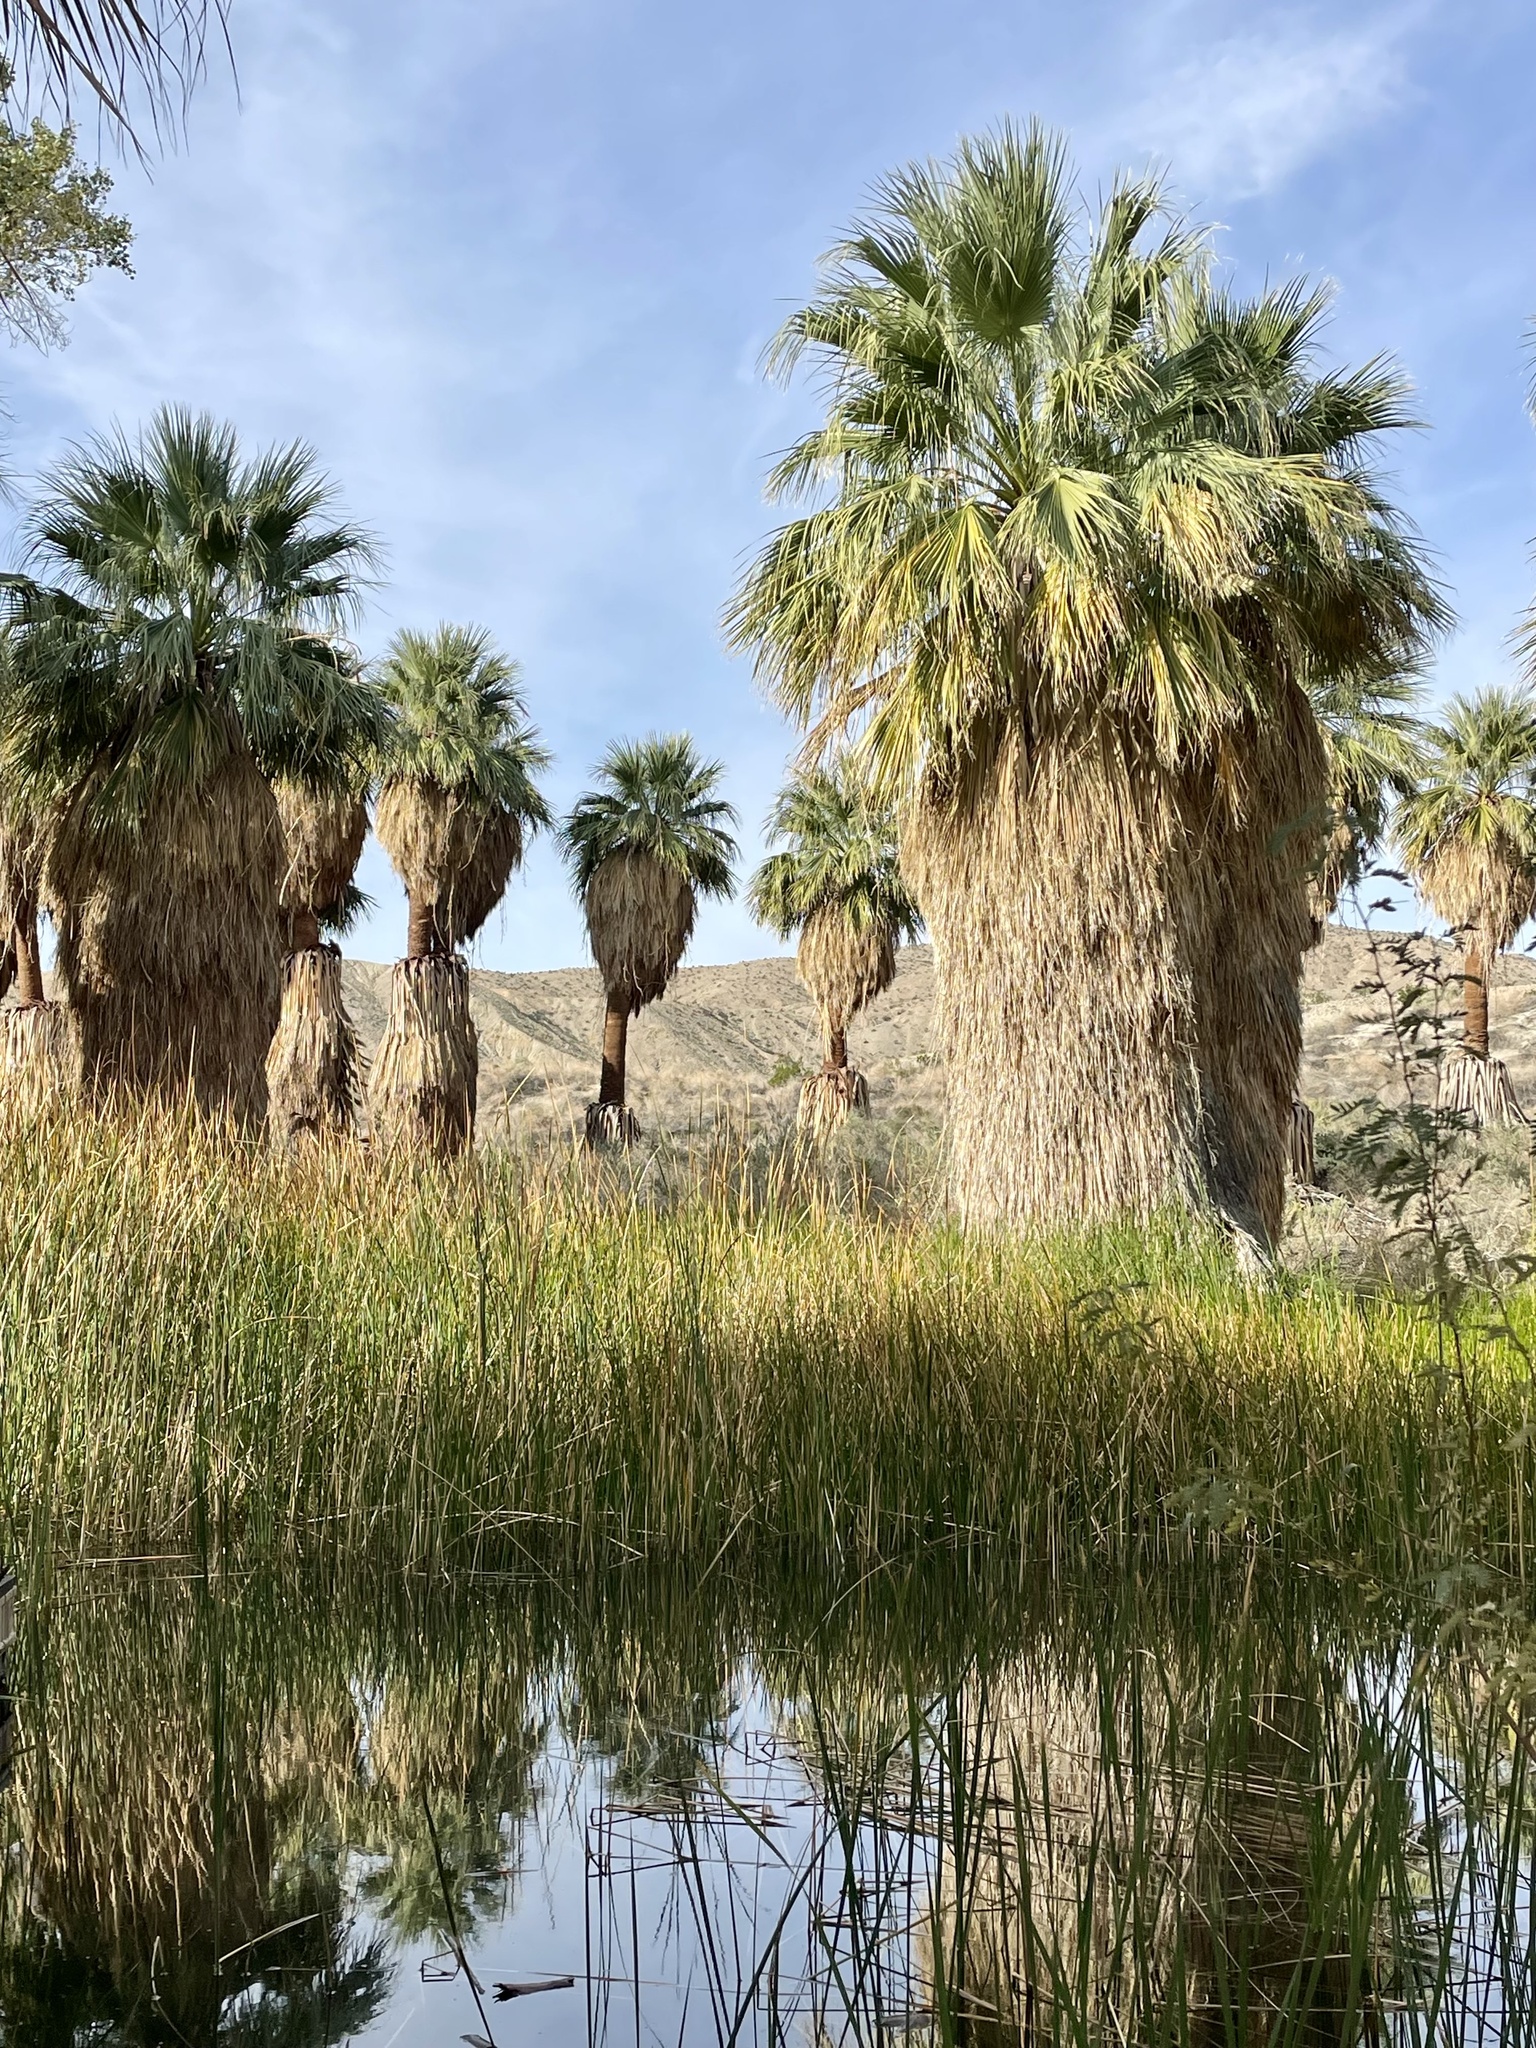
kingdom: Plantae
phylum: Tracheophyta
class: Liliopsida
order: Arecales
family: Arecaceae
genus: Washingtonia
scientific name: Washingtonia filifera
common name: California fan palm
